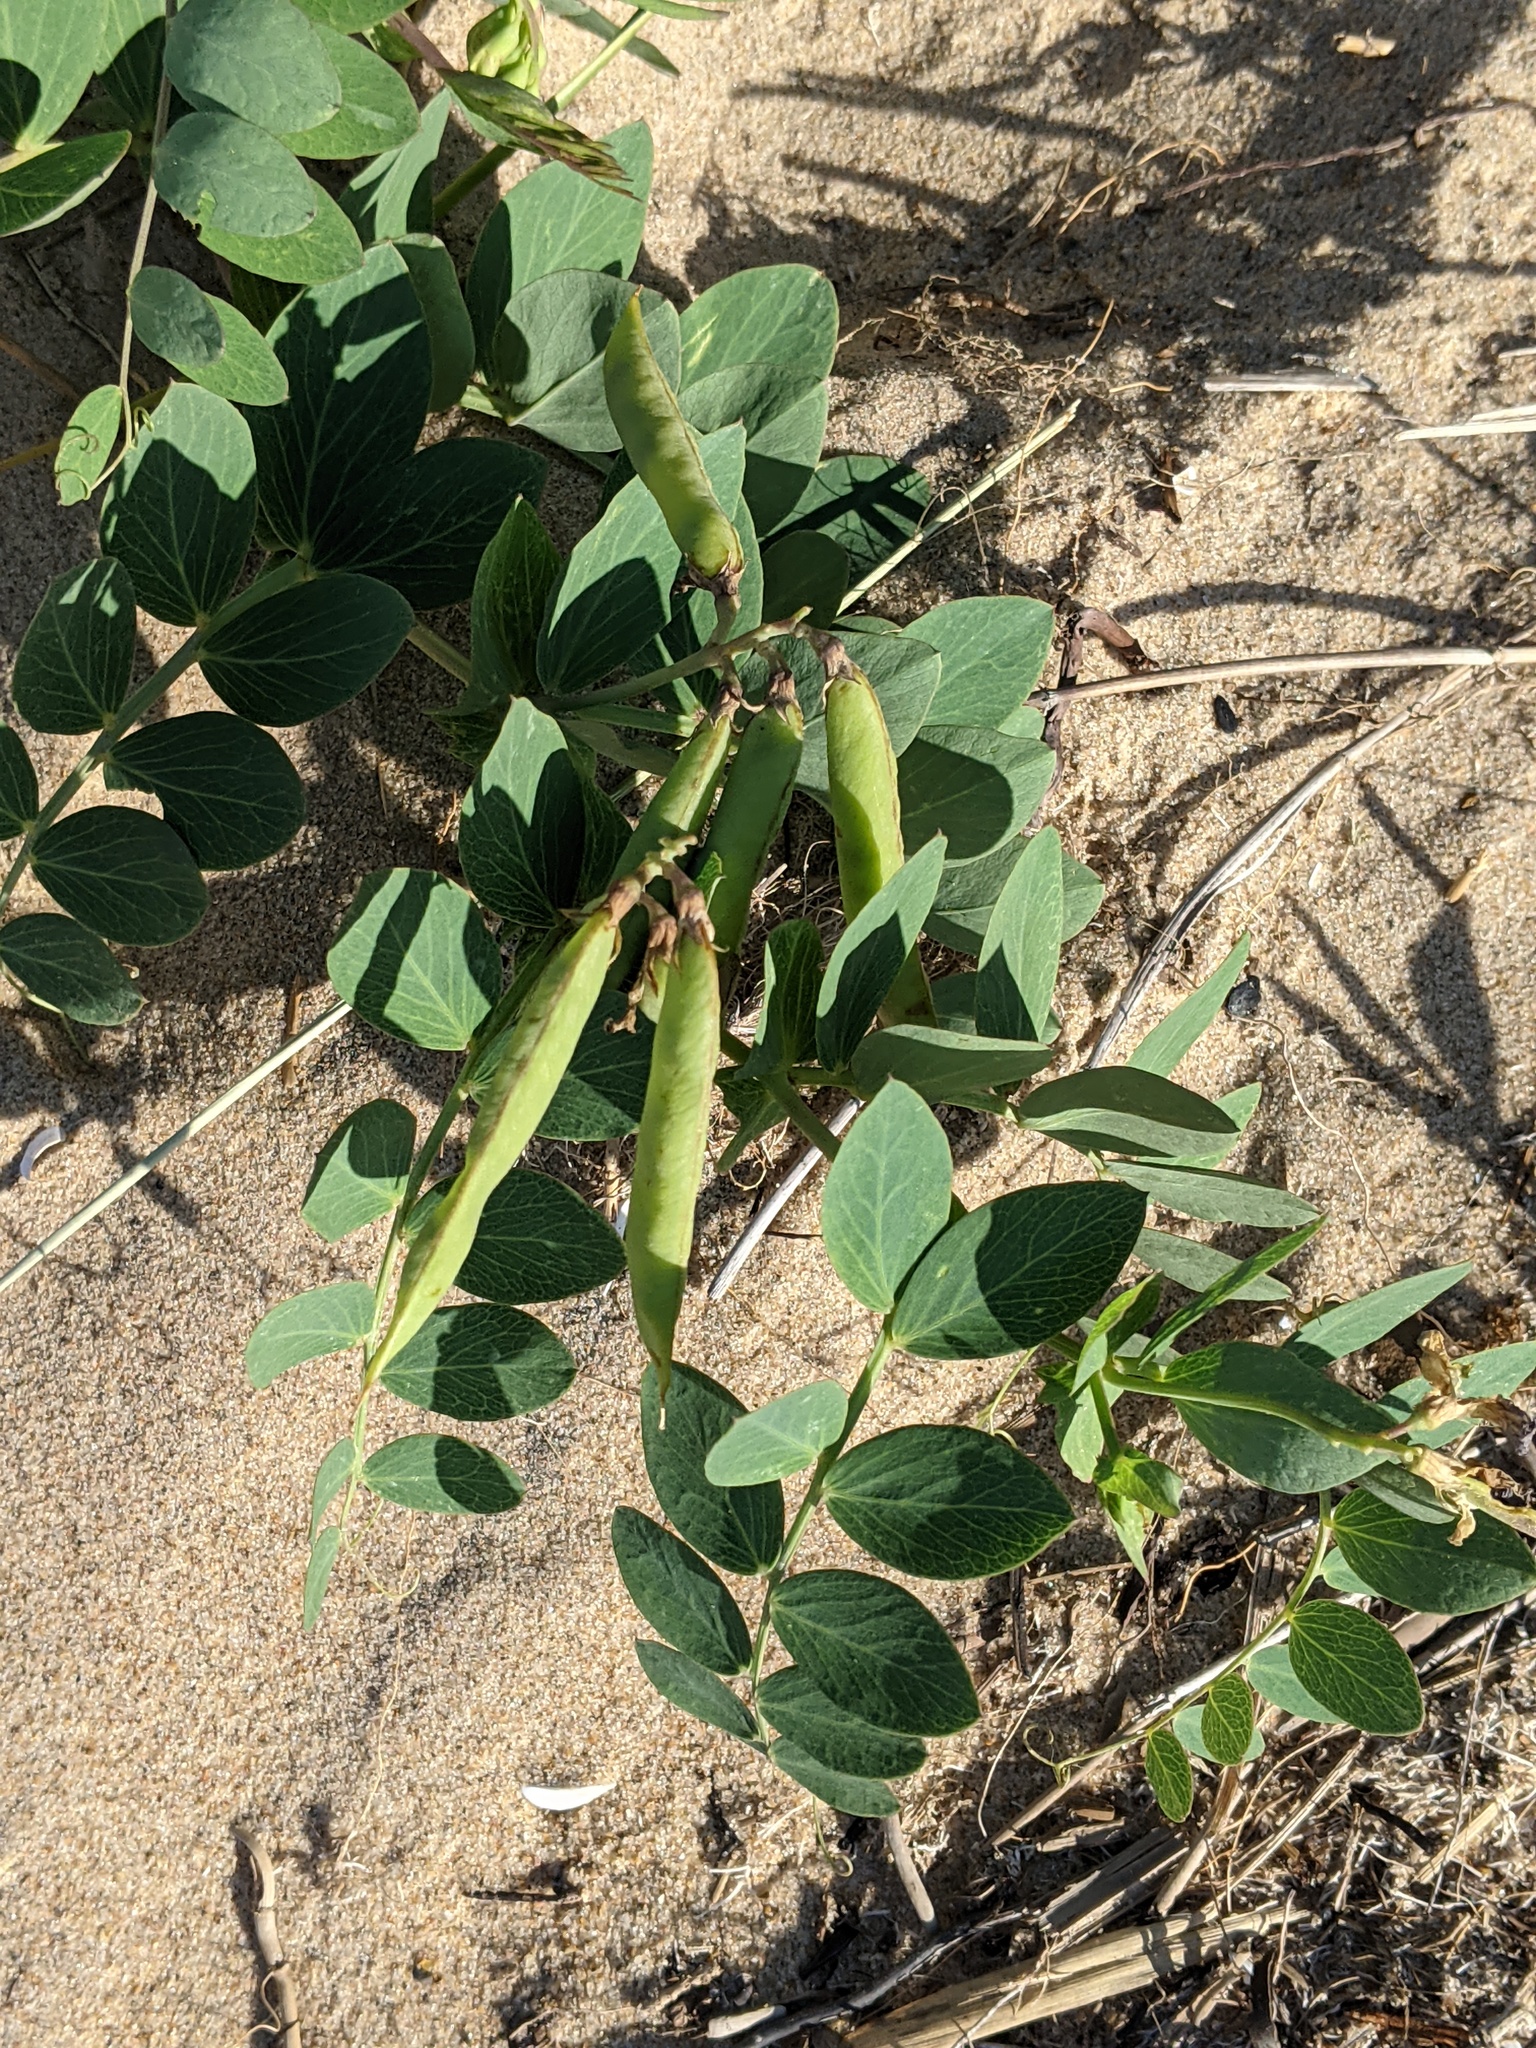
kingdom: Plantae
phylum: Tracheophyta
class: Magnoliopsida
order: Fabales
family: Fabaceae
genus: Lathyrus
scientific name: Lathyrus japonicus
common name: Sea pea
